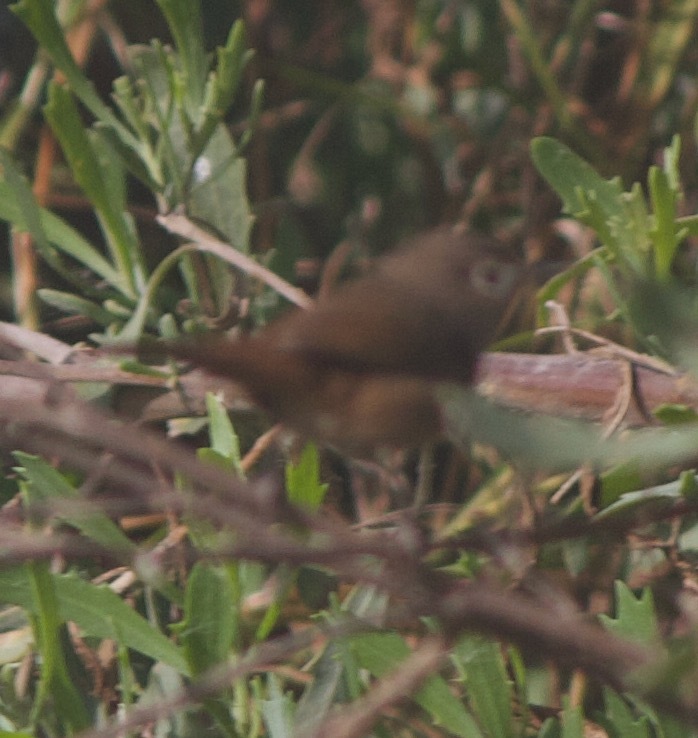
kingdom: Animalia
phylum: Chordata
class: Aves
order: Passeriformes
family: Troglodytidae
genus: Troglodytes
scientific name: Troglodytes aedon
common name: House wren
